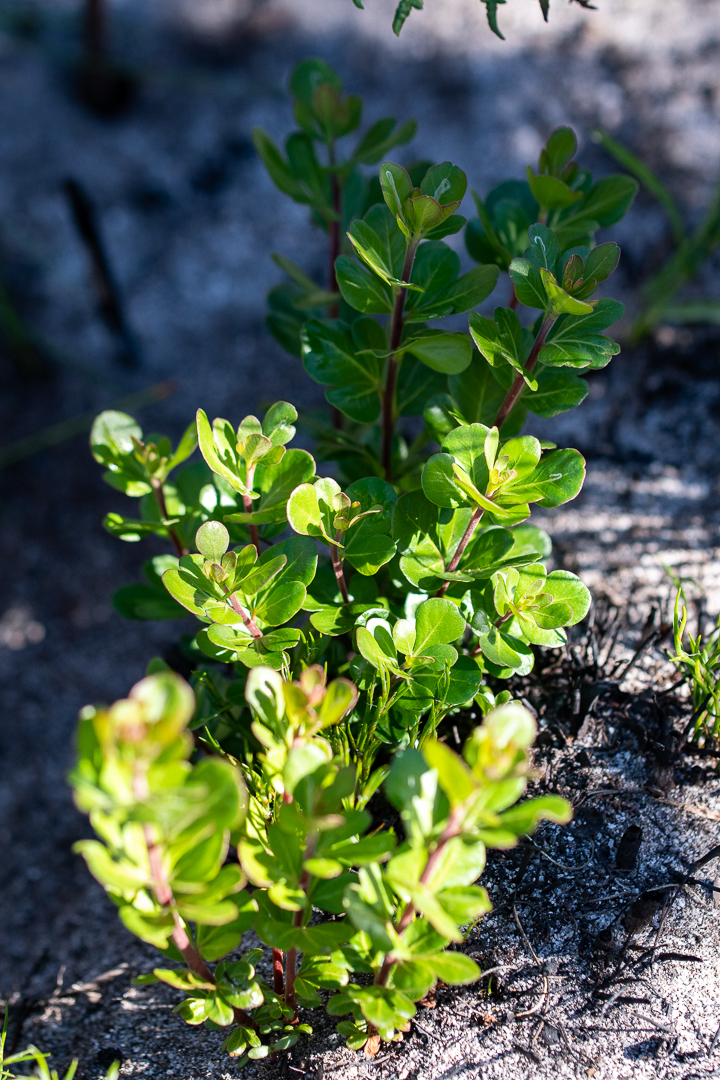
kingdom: Plantae
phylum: Tracheophyta
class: Magnoliopsida
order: Sapindales
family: Anacardiaceae
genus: Searsia
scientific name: Searsia lucida
